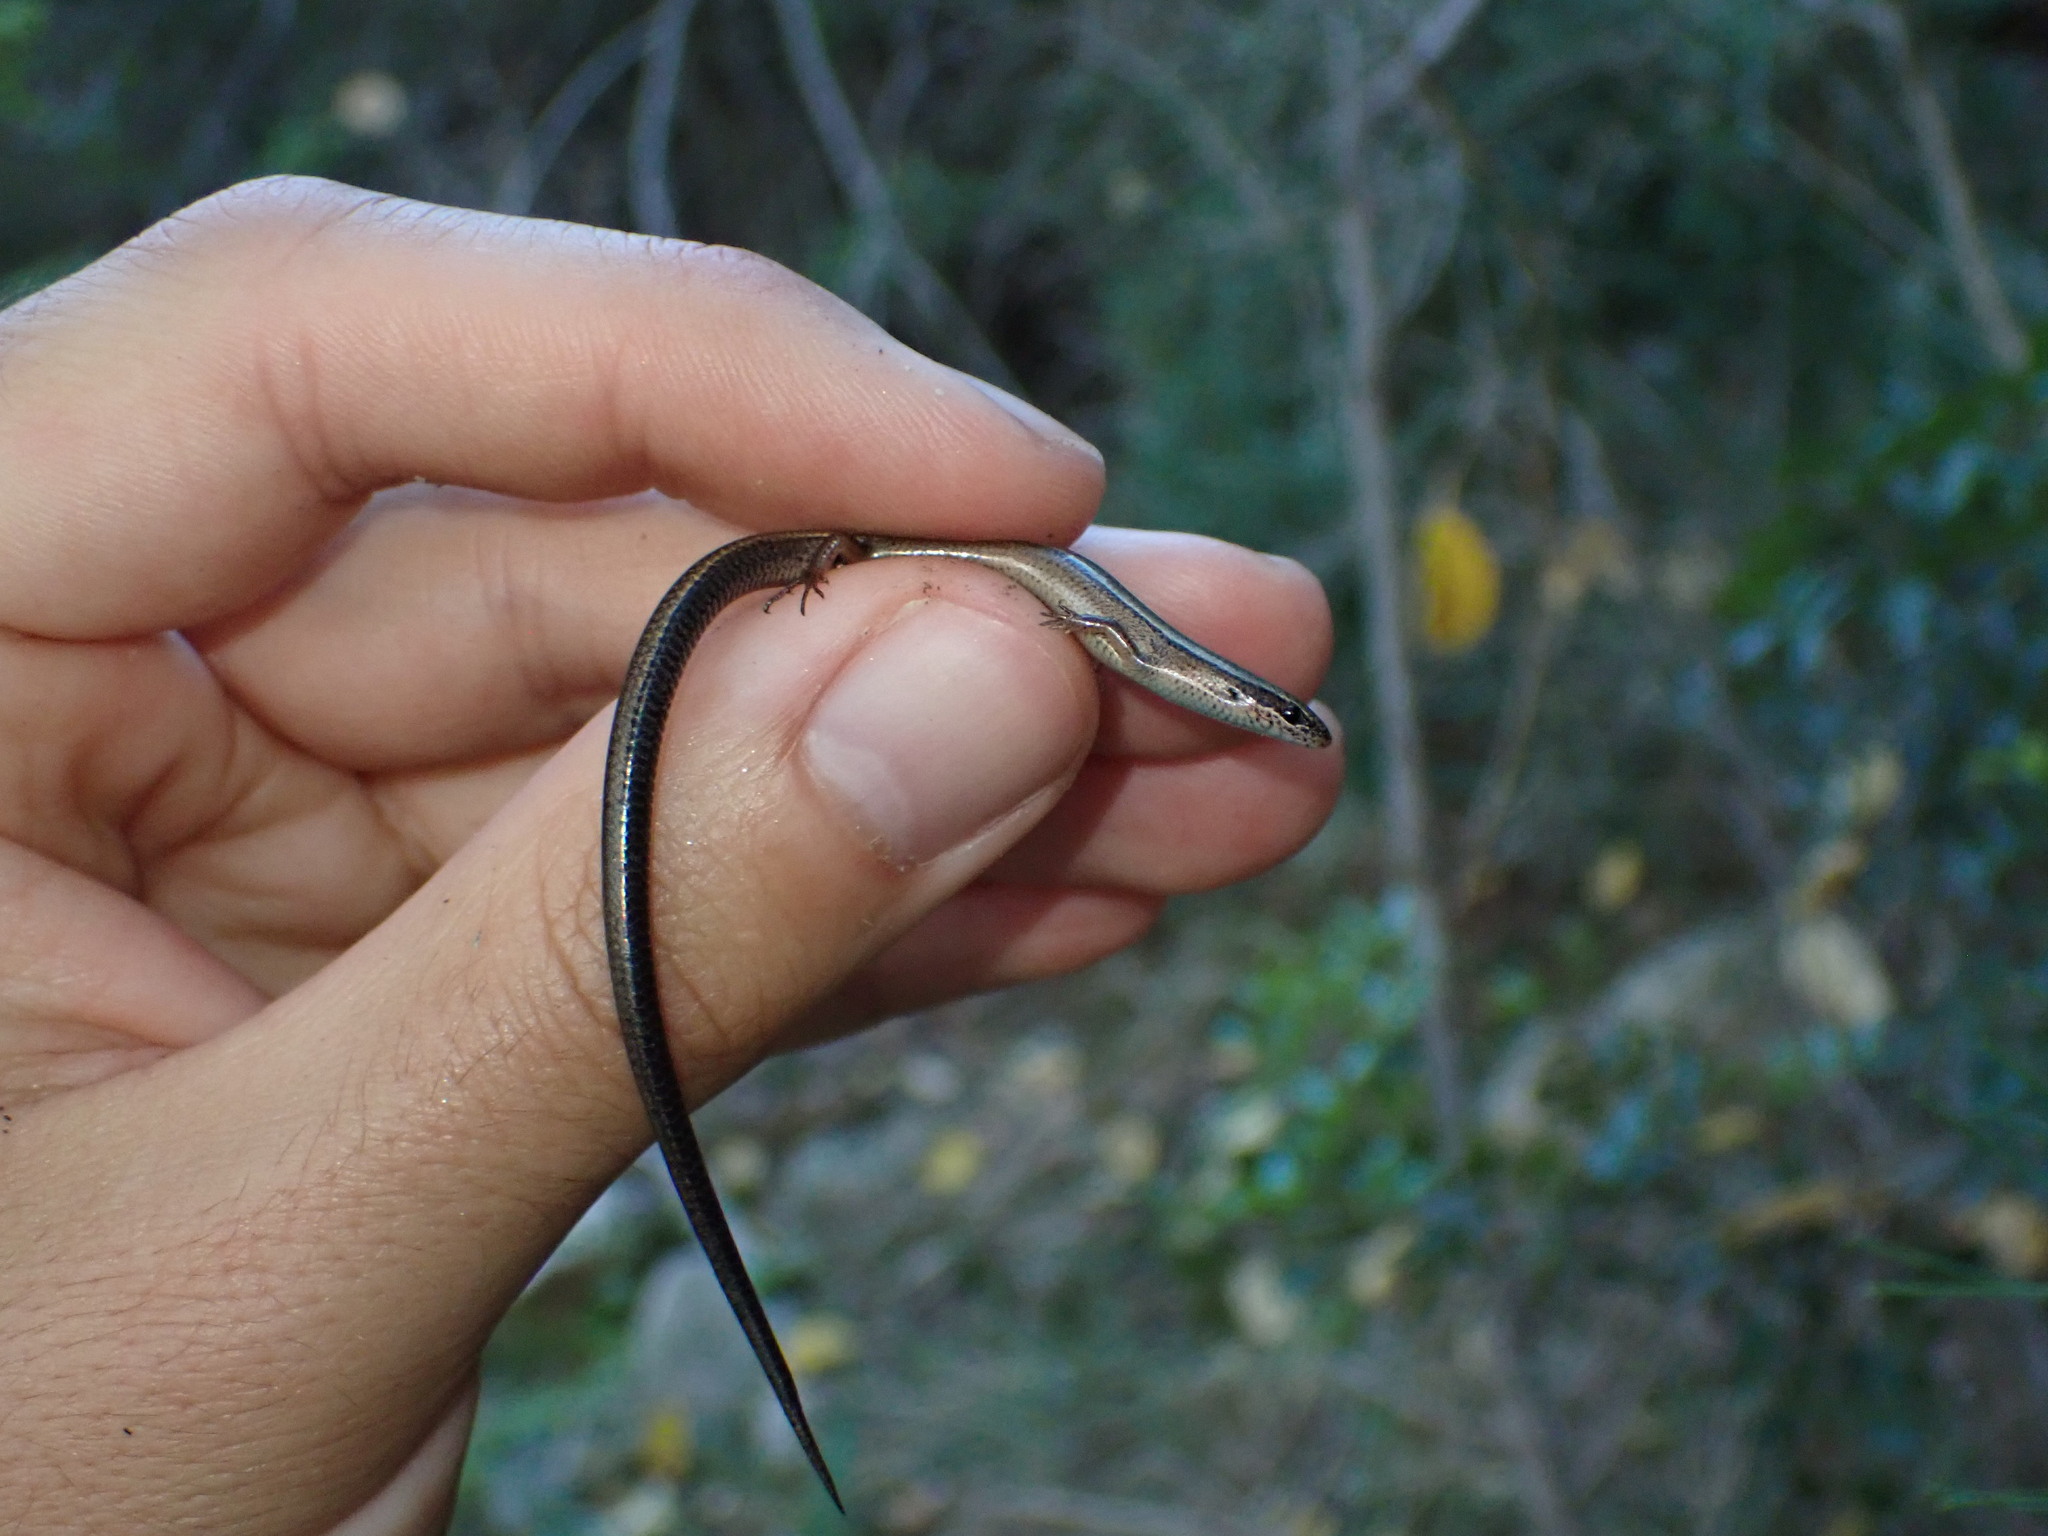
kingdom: Animalia
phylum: Chordata
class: Squamata
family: Scincidae
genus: Ablepharus
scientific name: Ablepharus anatolicus
